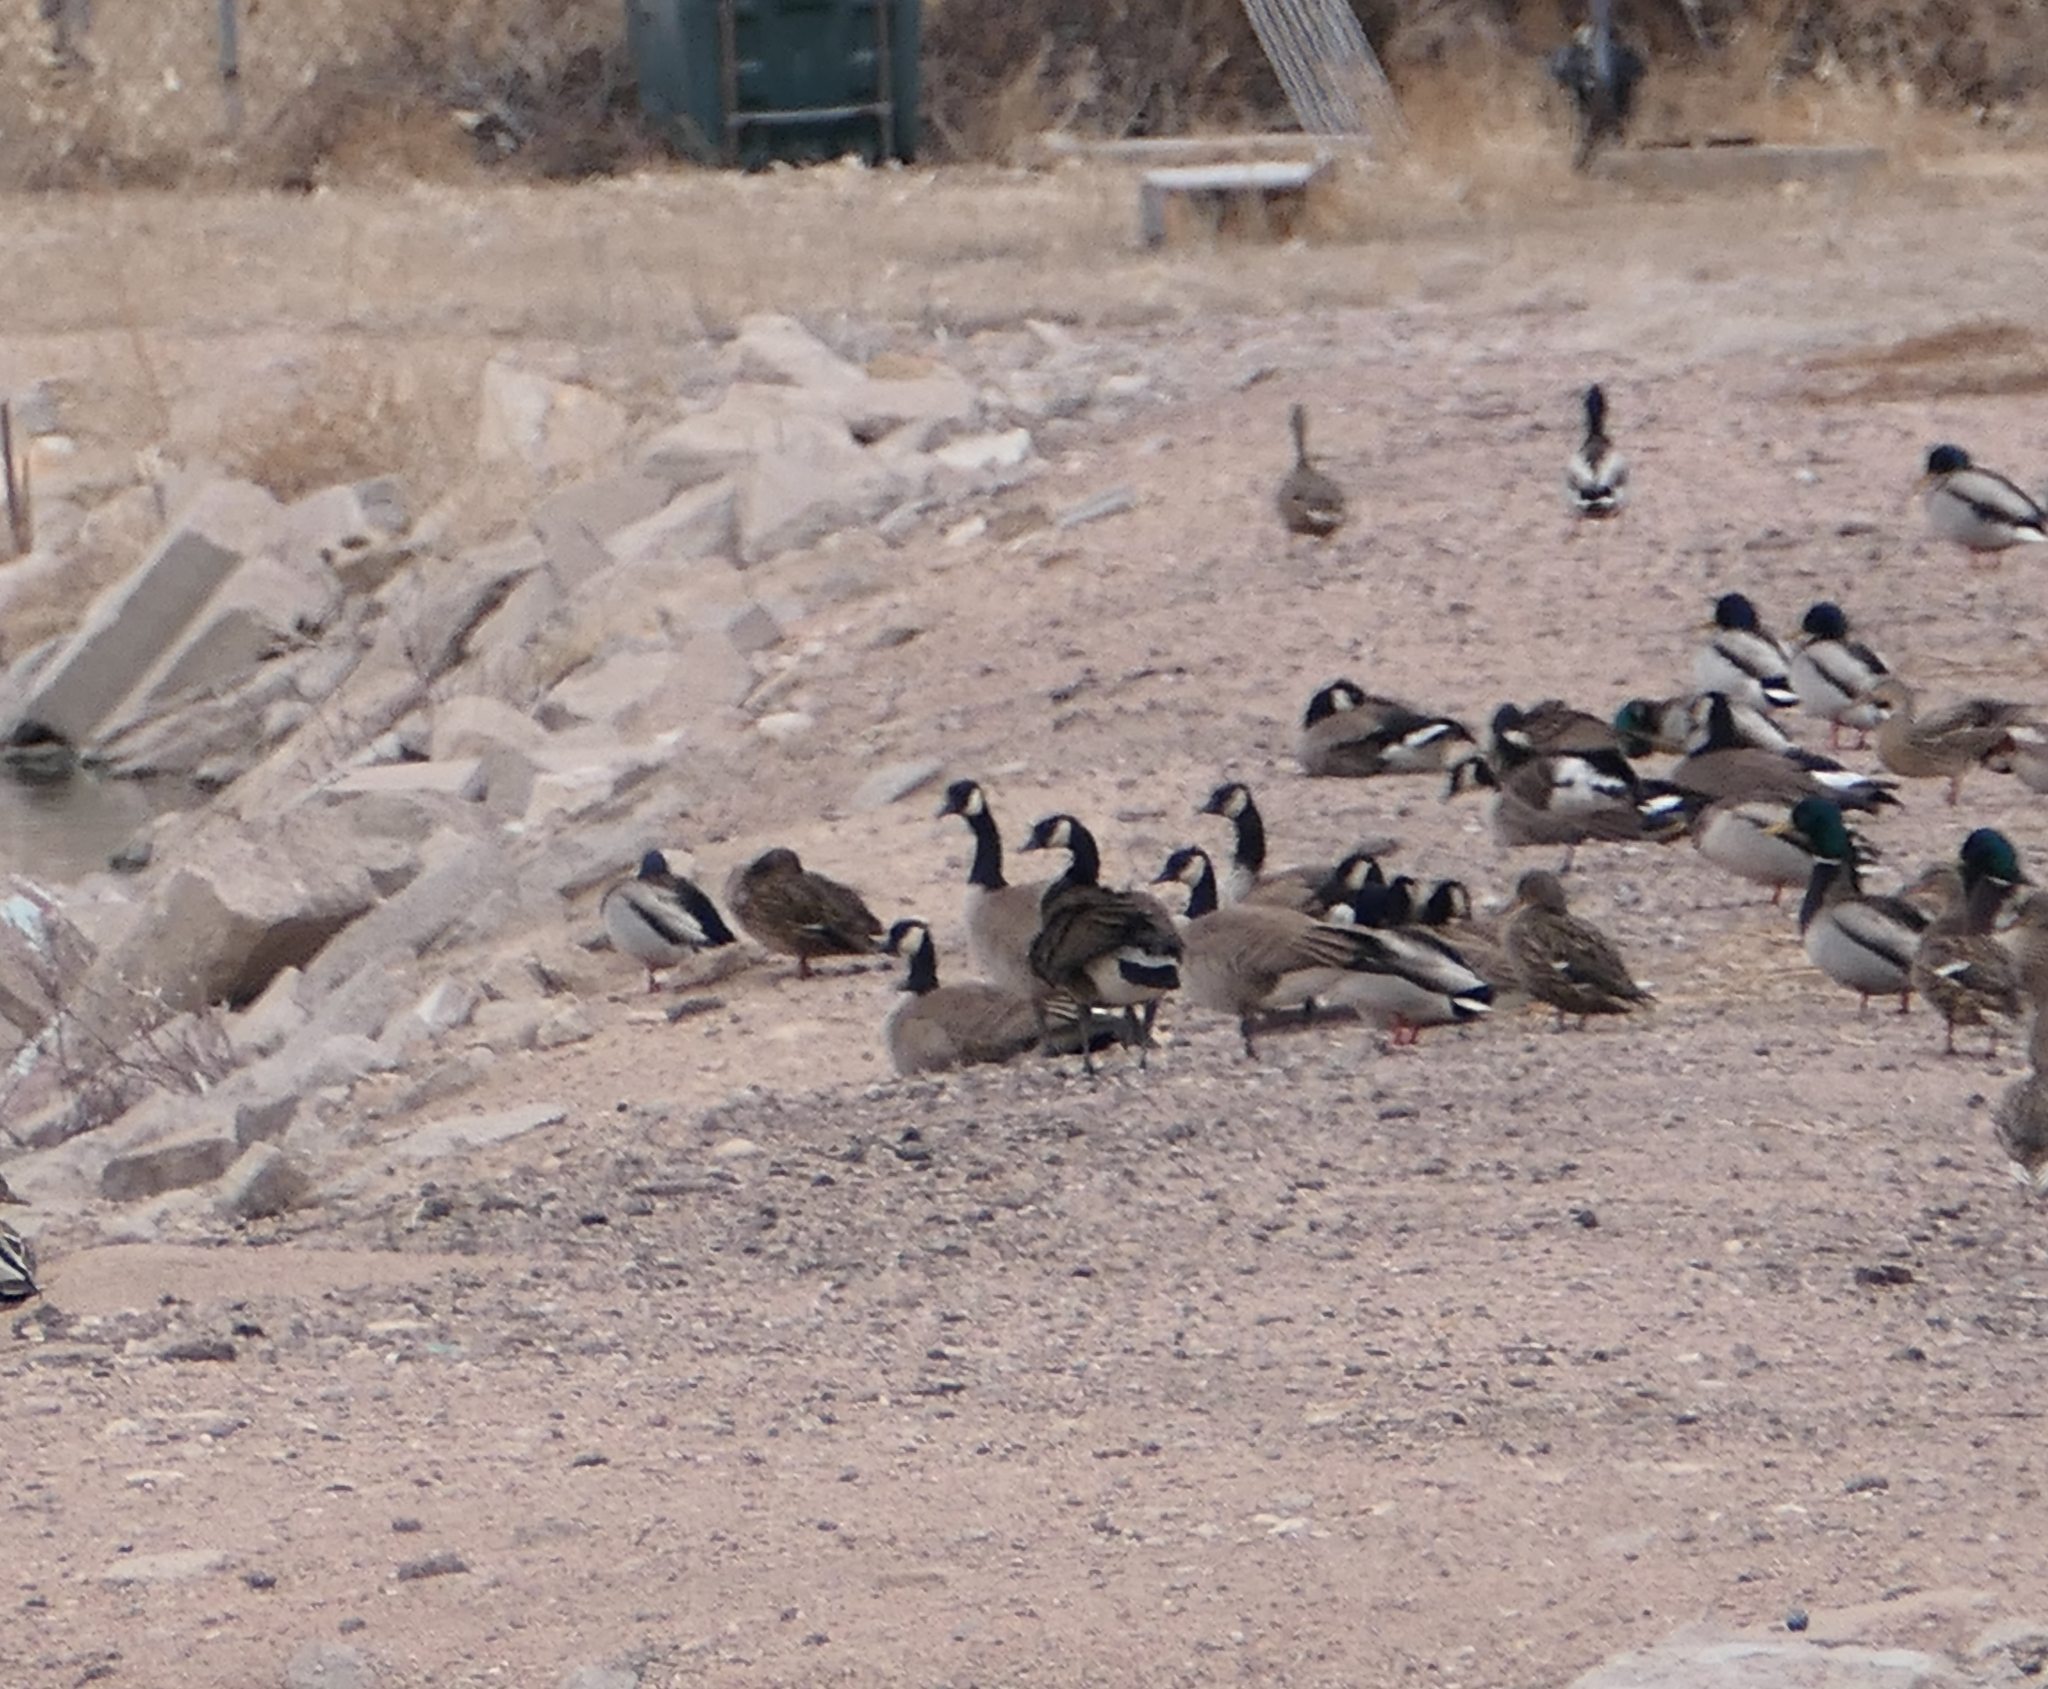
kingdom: Animalia
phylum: Chordata
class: Aves
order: Anseriformes
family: Anatidae
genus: Branta
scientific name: Branta canadensis
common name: Canada goose
